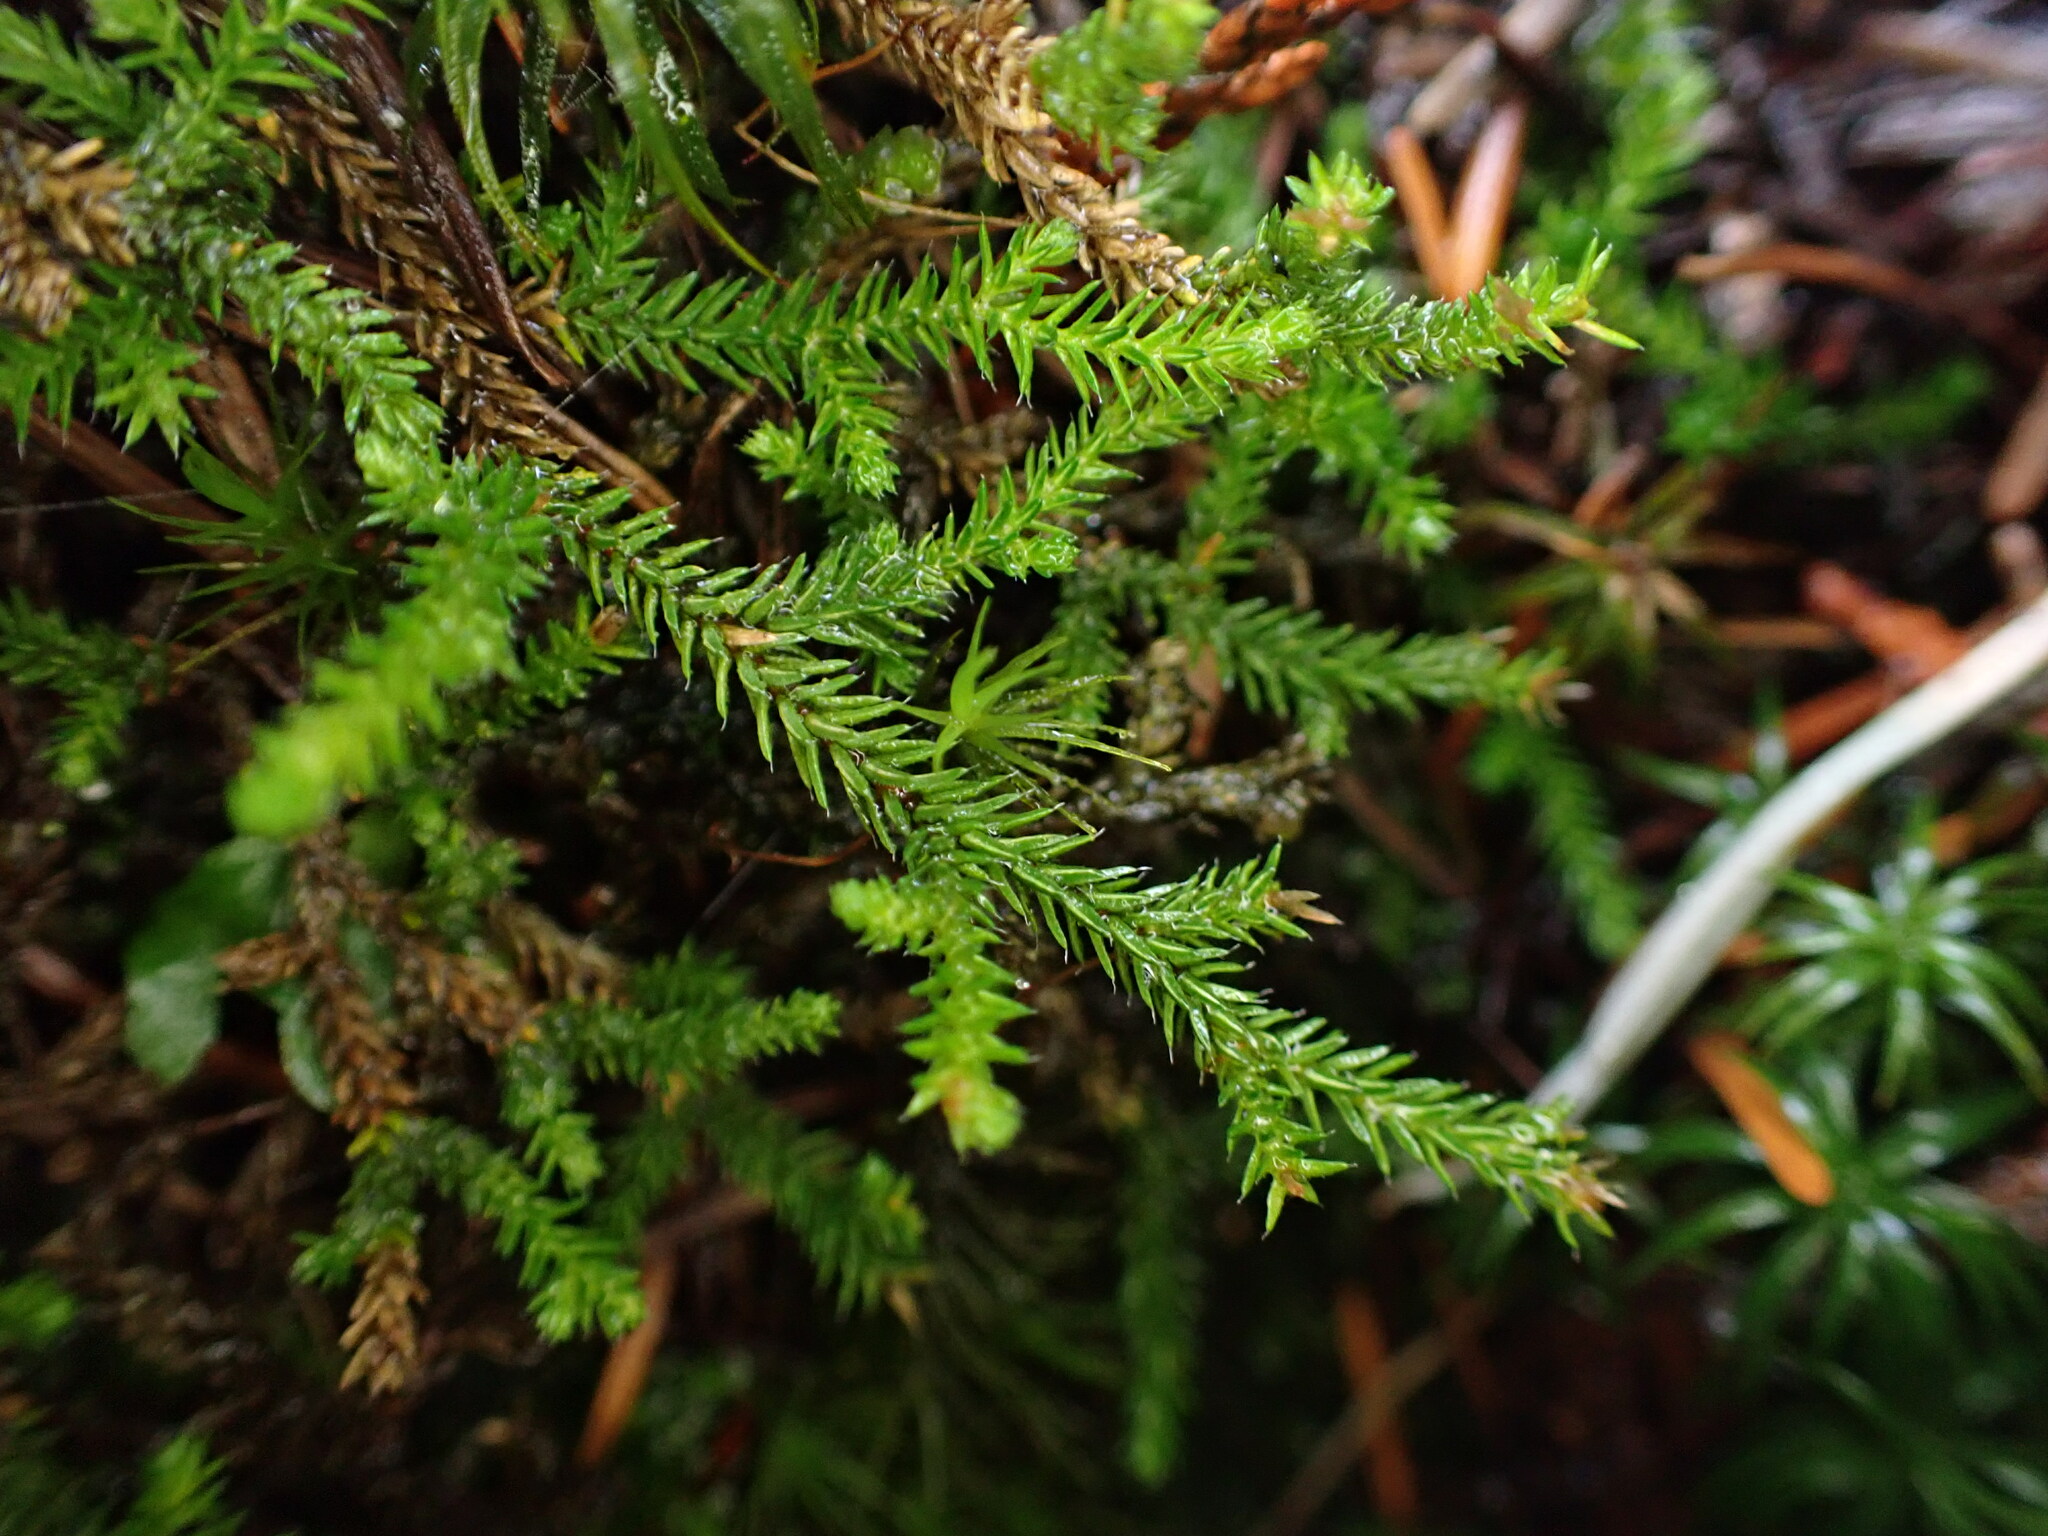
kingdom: Plantae
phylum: Tracheophyta
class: Lycopodiopsida
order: Selaginellales
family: Selaginellaceae
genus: Selaginella
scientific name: Selaginella wallacei
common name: Wallace's selaginella
